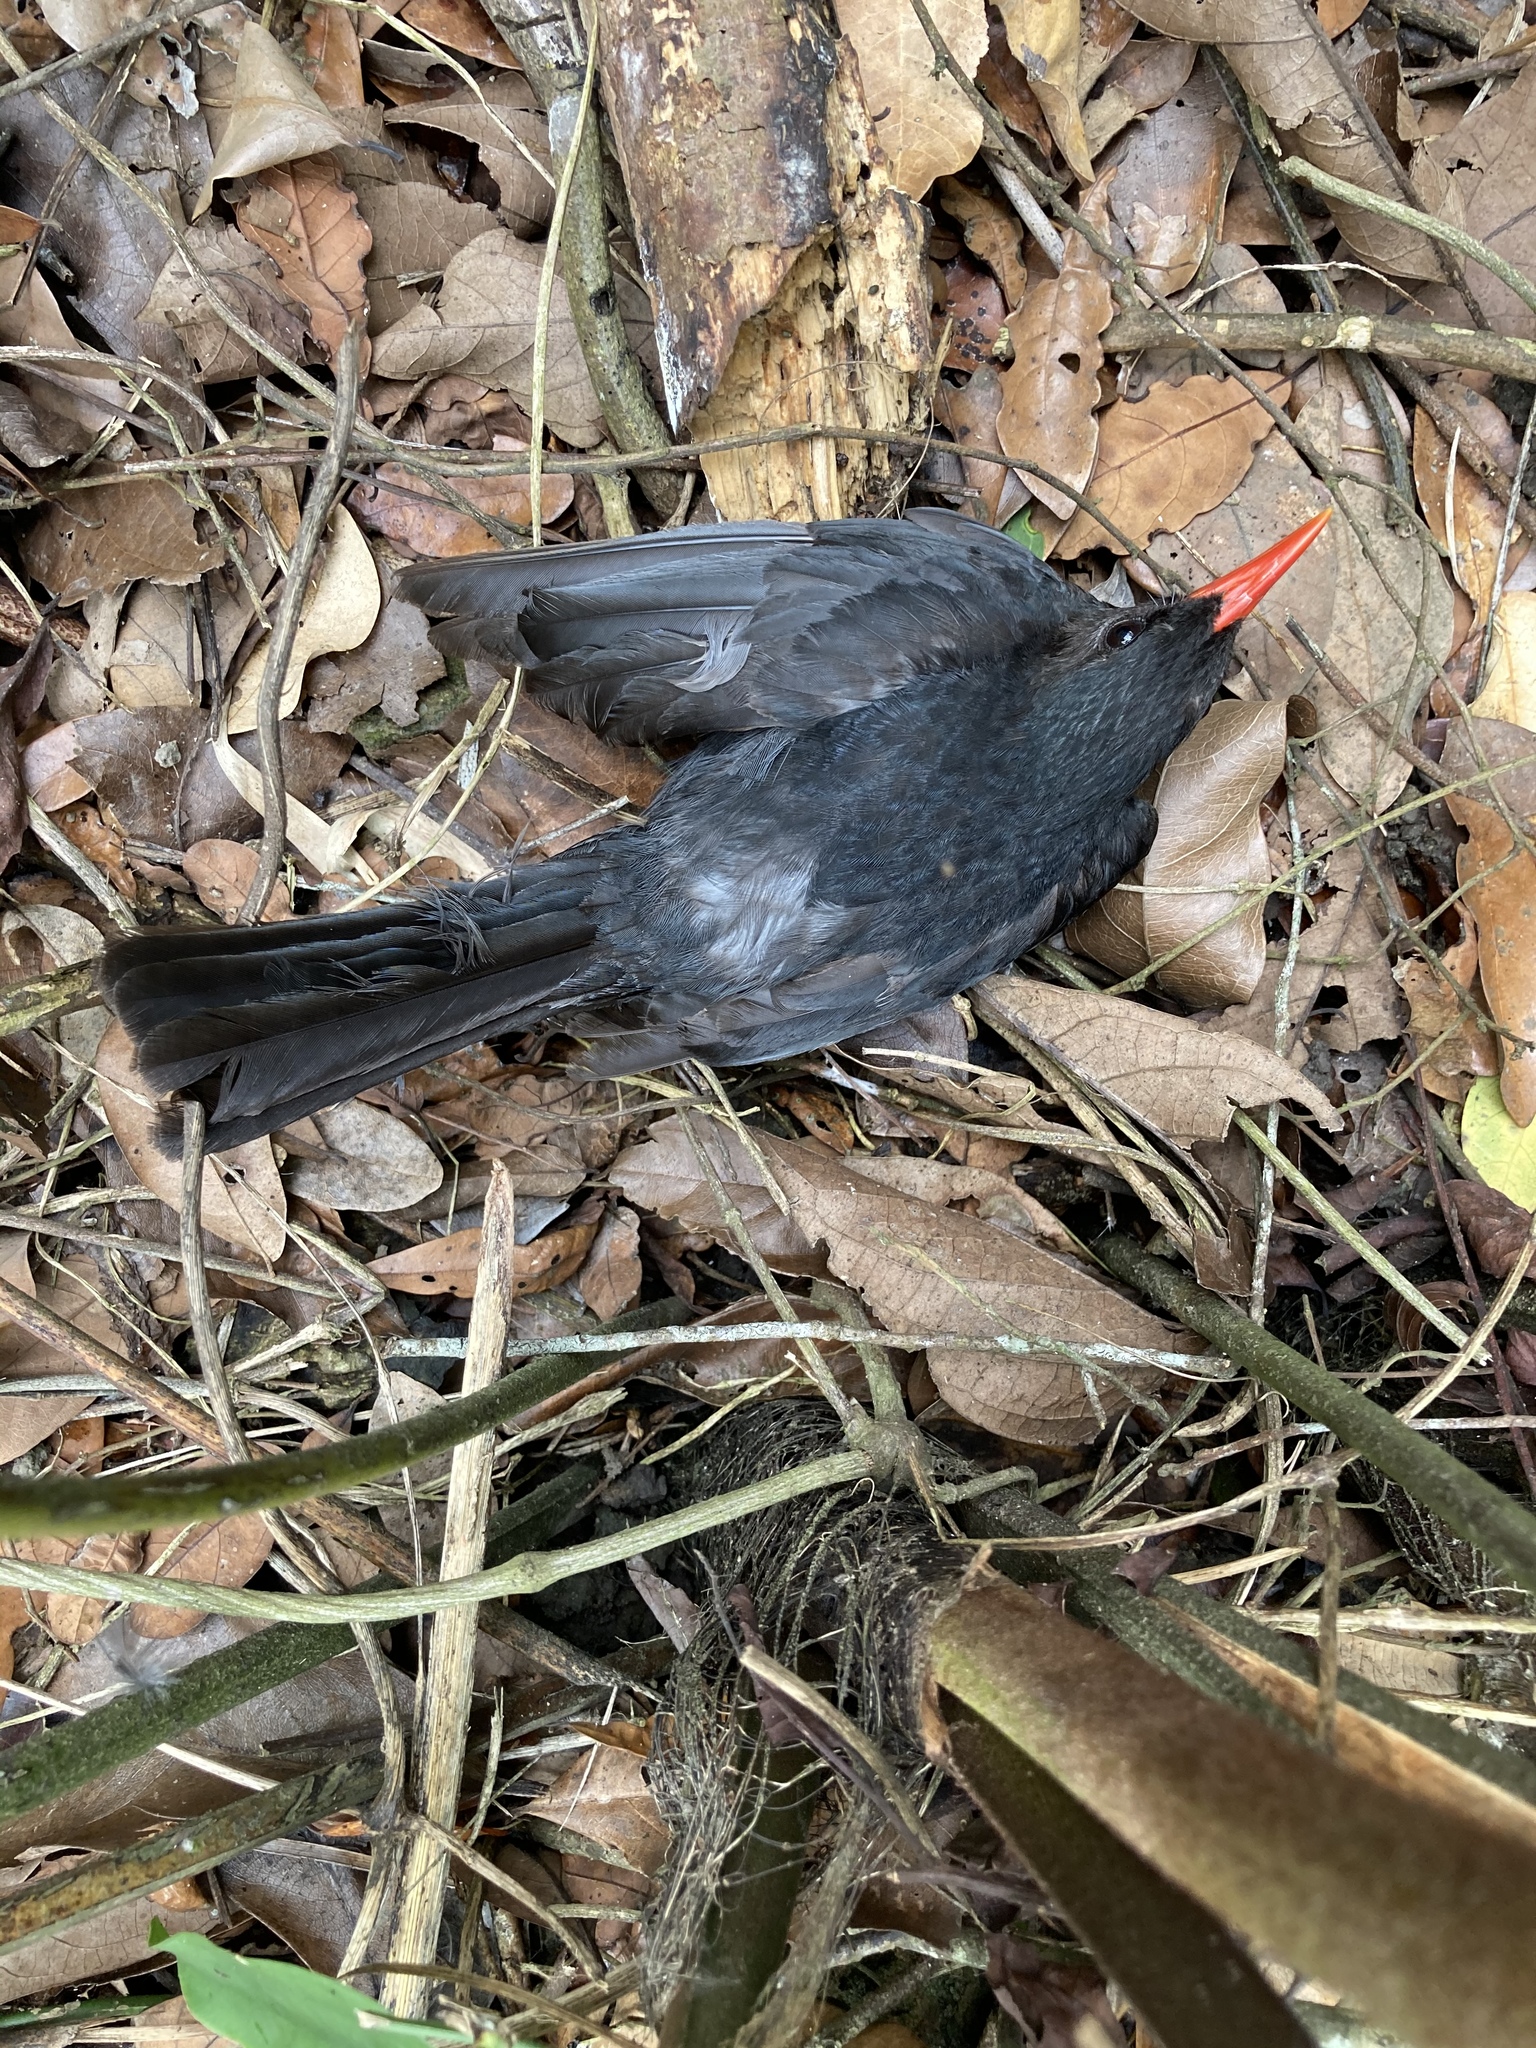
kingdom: Animalia
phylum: Chordata
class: Aves
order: Passeriformes
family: Pycnonotidae
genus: Hypsipetes
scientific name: Hypsipetes leucocephalus
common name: Black bulbul
